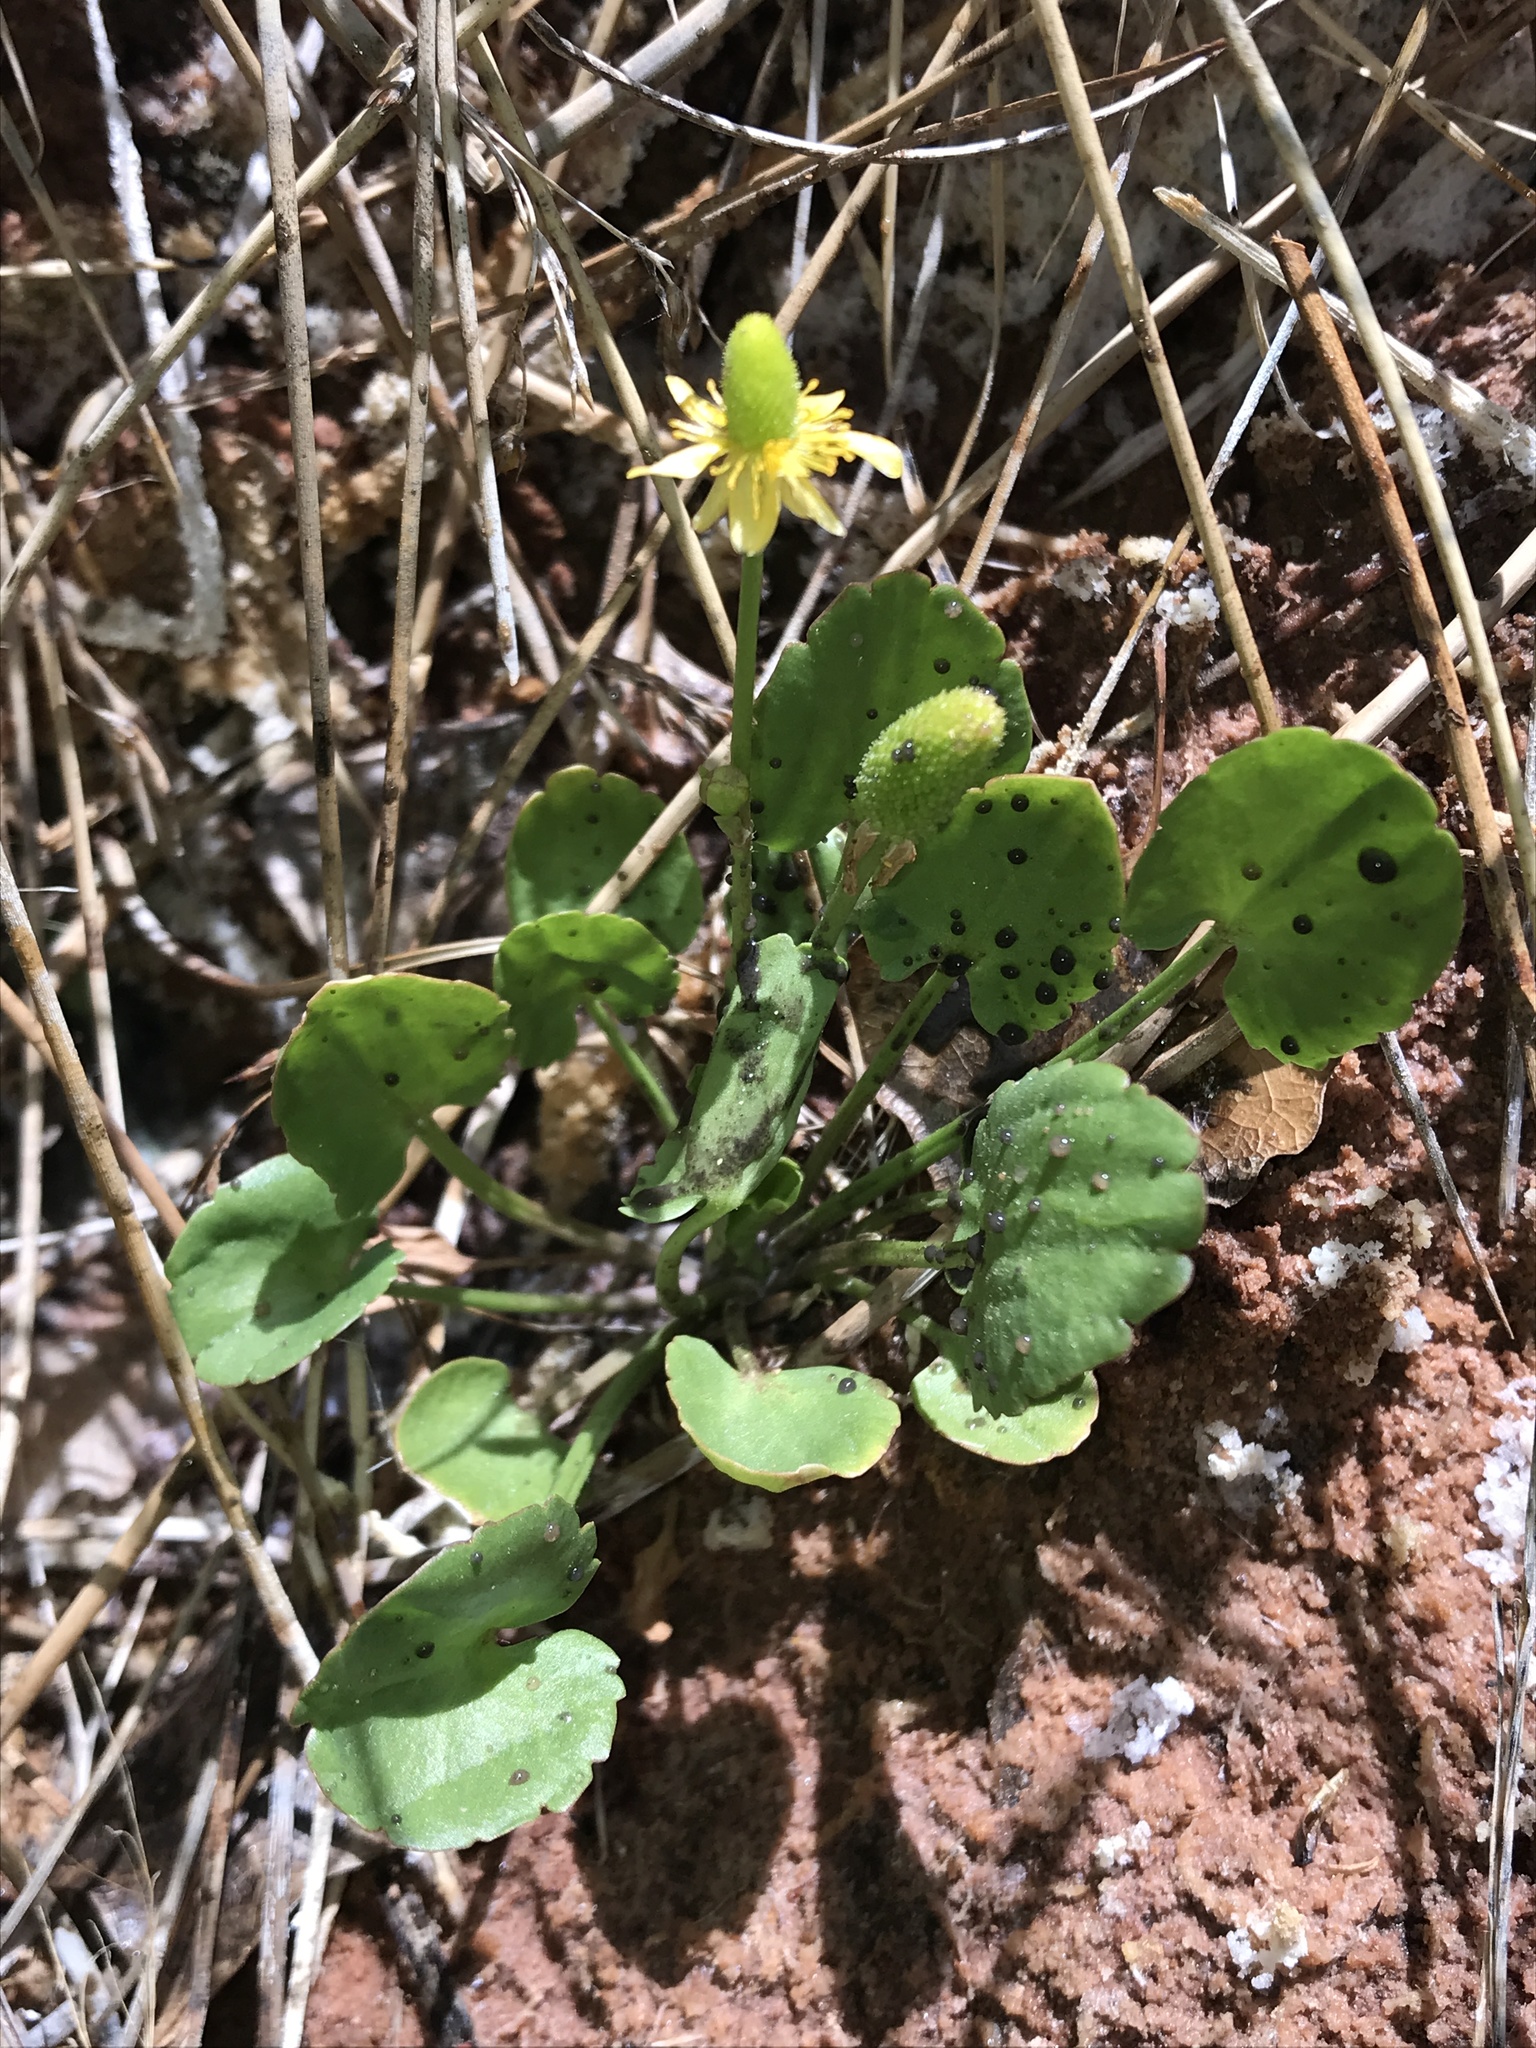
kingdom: Plantae
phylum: Tracheophyta
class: Magnoliopsida
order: Ranunculales
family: Ranunculaceae
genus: Halerpestes
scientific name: Halerpestes cymbalaria
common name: Seaside crowfoot
